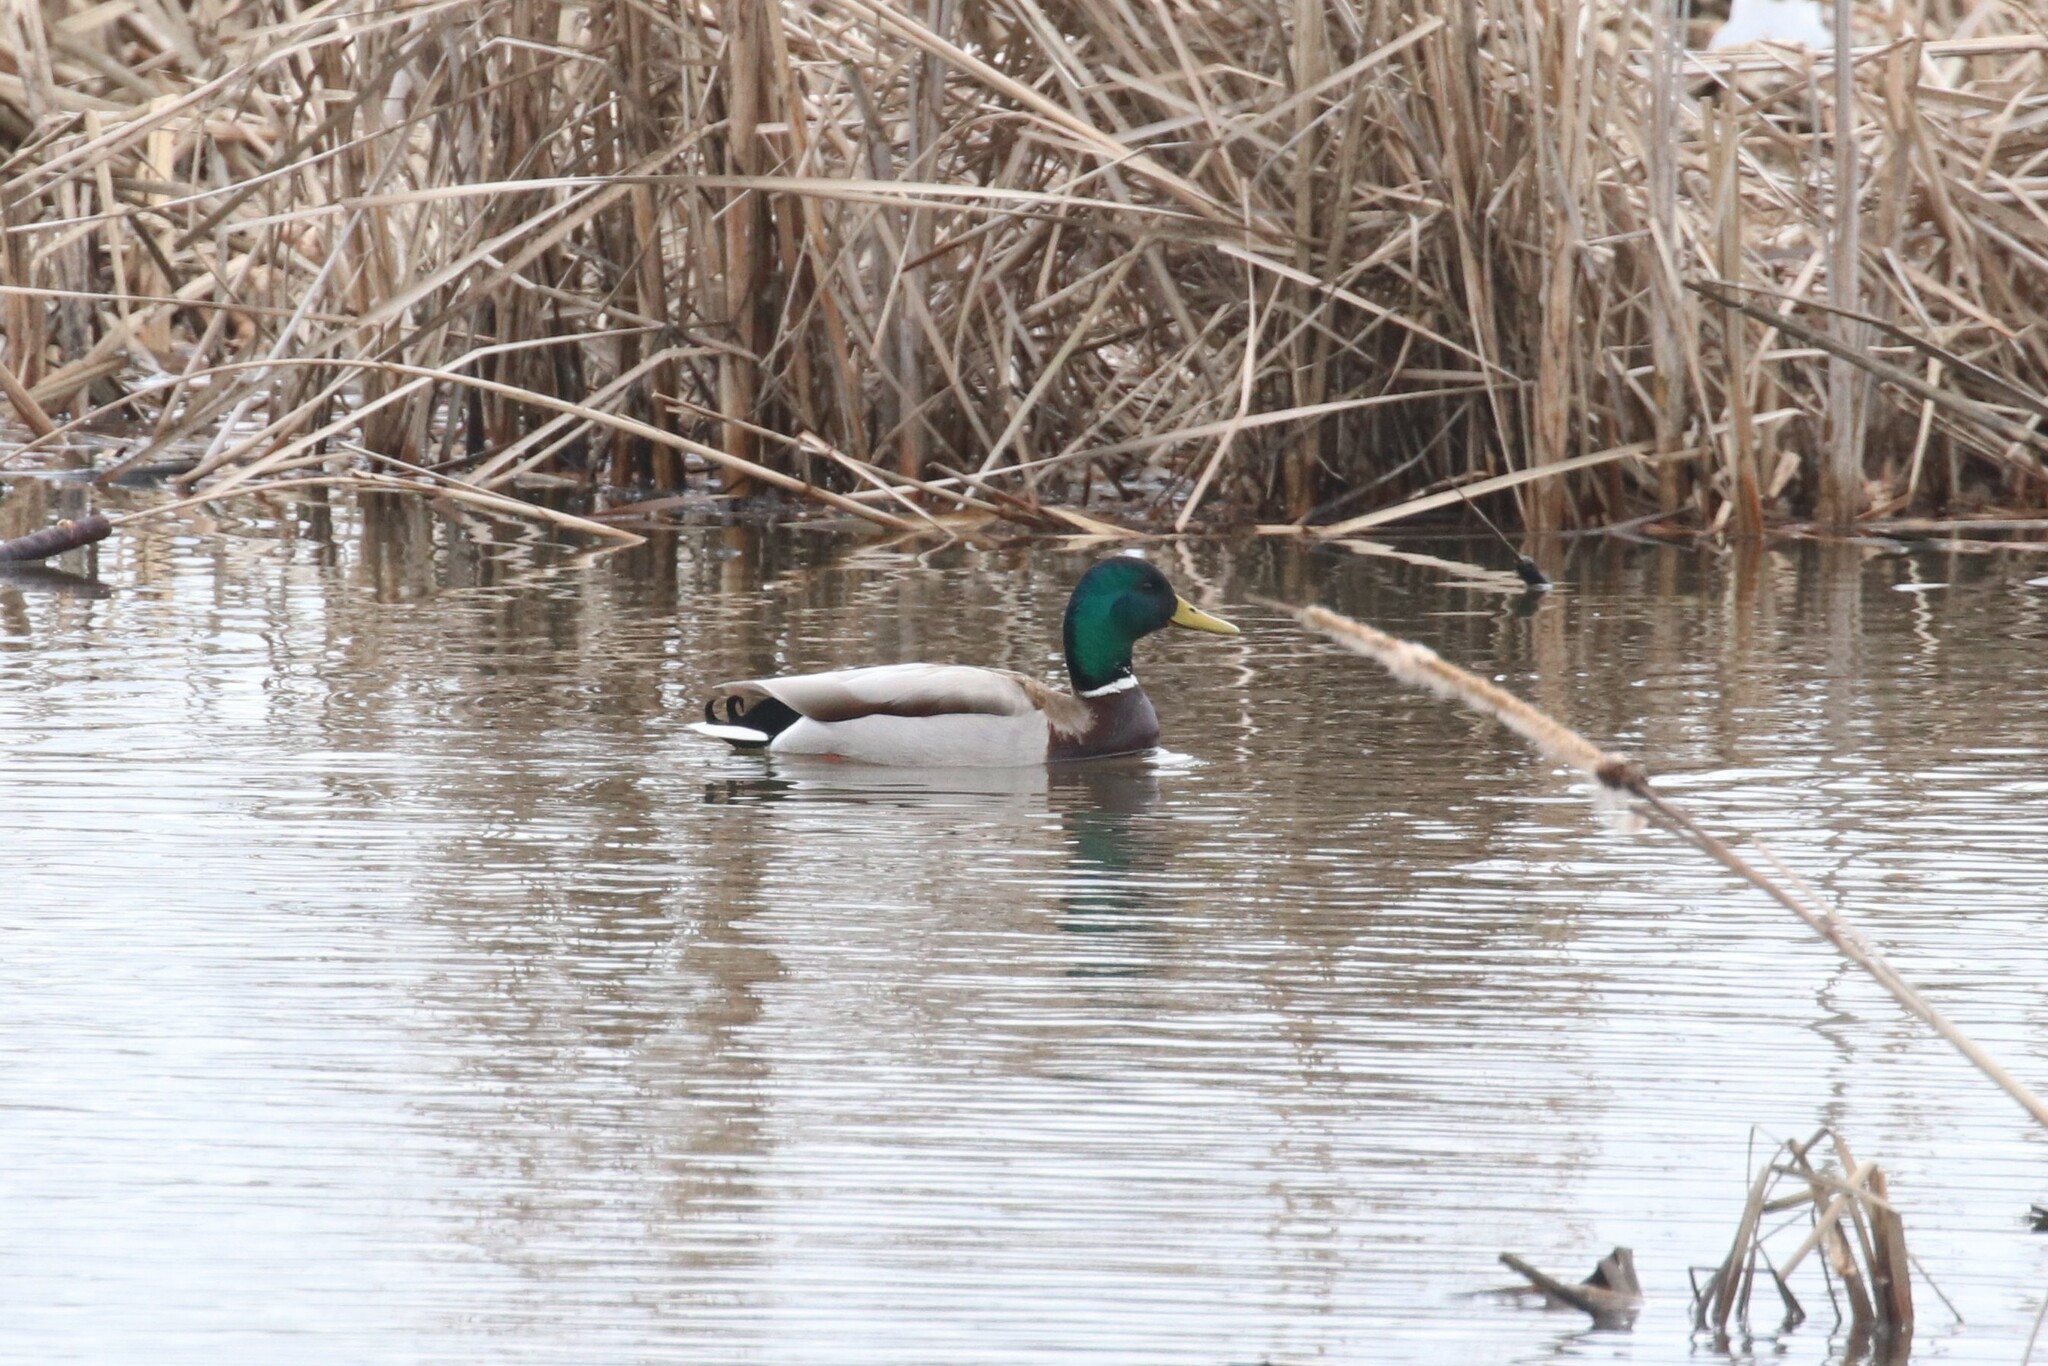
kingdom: Animalia
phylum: Chordata
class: Aves
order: Anseriformes
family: Anatidae
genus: Anas
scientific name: Anas platyrhynchos
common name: Mallard
